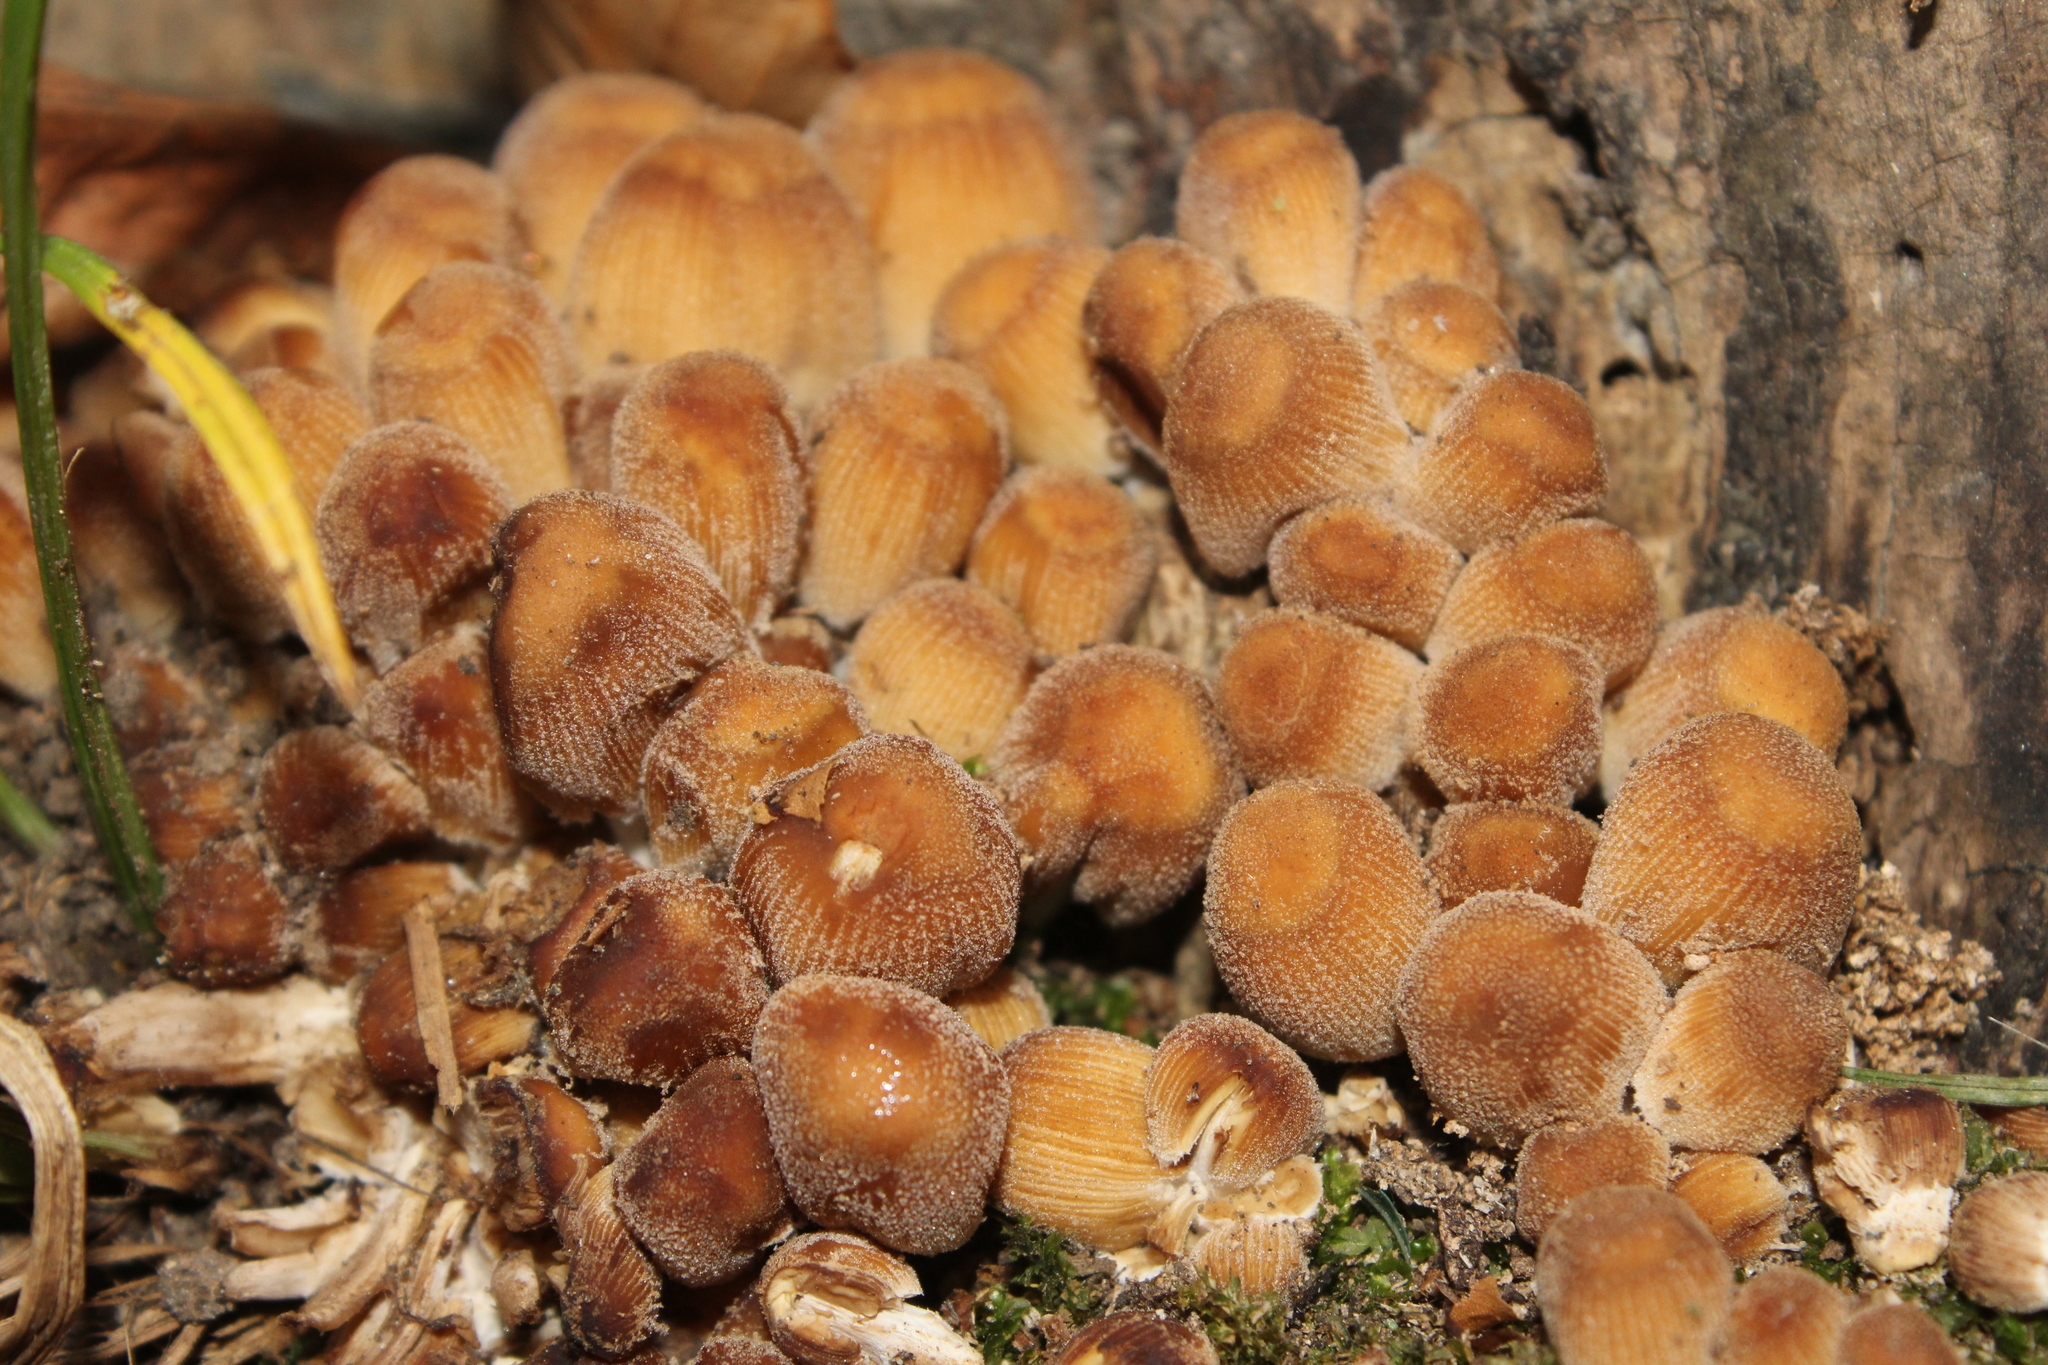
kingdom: Fungi
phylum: Basidiomycota
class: Agaricomycetes
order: Agaricales
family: Psathyrellaceae
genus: Coprinellus
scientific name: Coprinellus micaceus
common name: Glistening ink-cap
